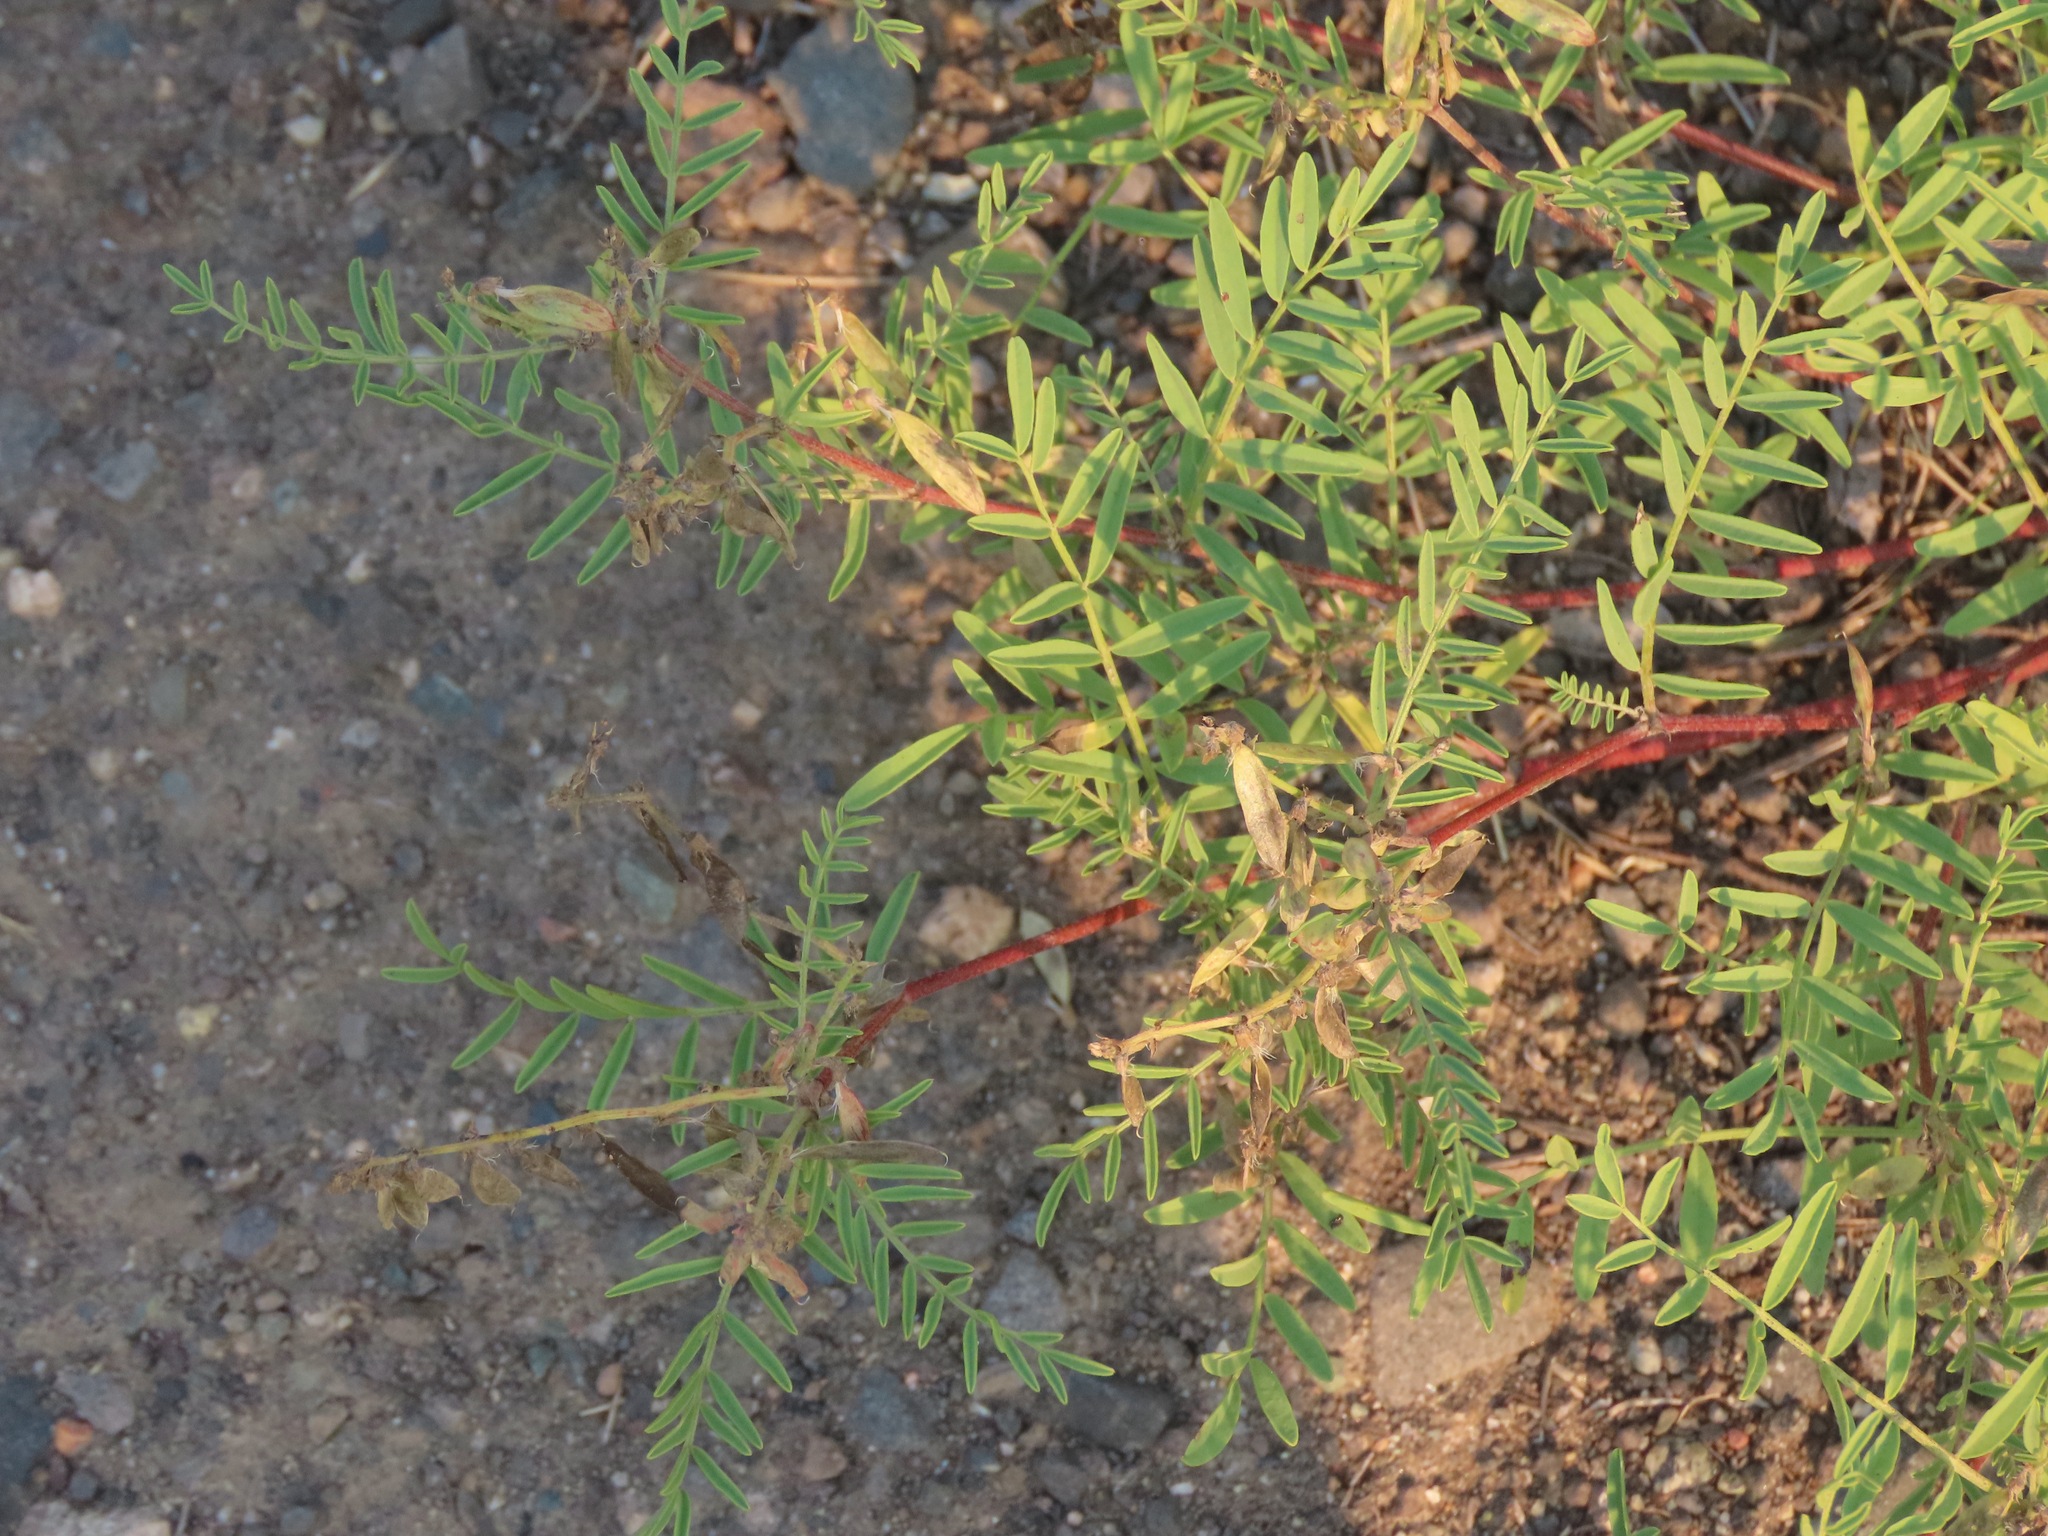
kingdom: Plantae
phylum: Tracheophyta
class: Magnoliopsida
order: Fabales
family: Fabaceae
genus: Astragalus
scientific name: Astragalus tenellus
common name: Pulse milk-vetch
